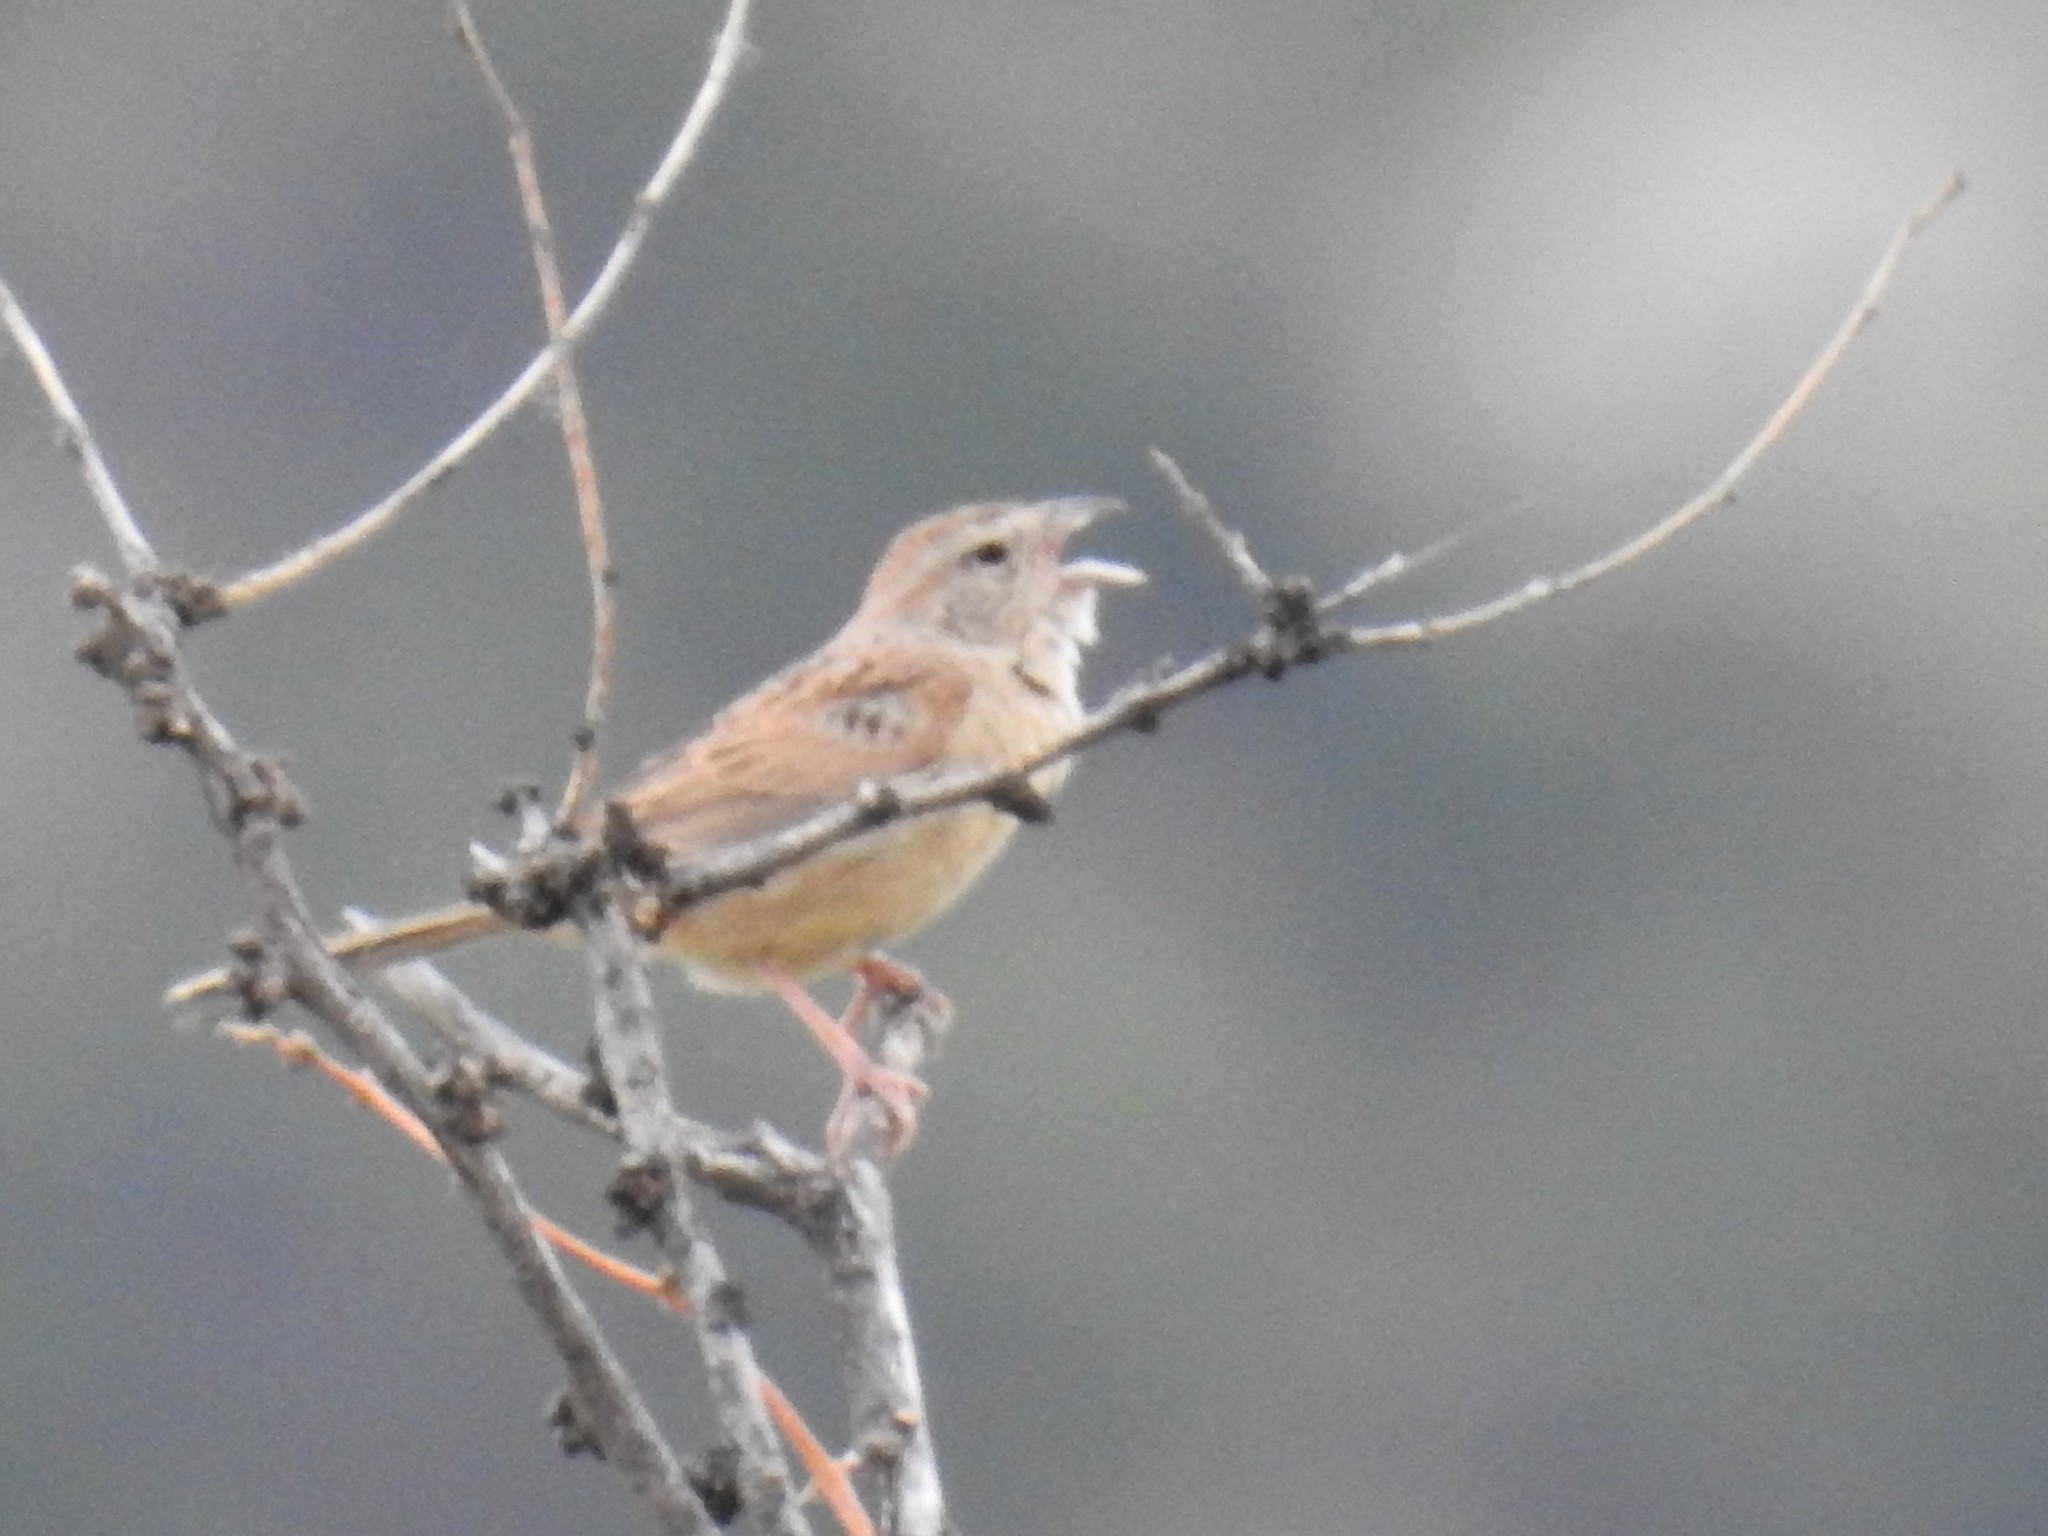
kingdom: Animalia
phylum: Chordata
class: Aves
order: Passeriformes
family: Passerellidae
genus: Peucaea
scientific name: Peucaea botterii
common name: Botteri's sparrow
